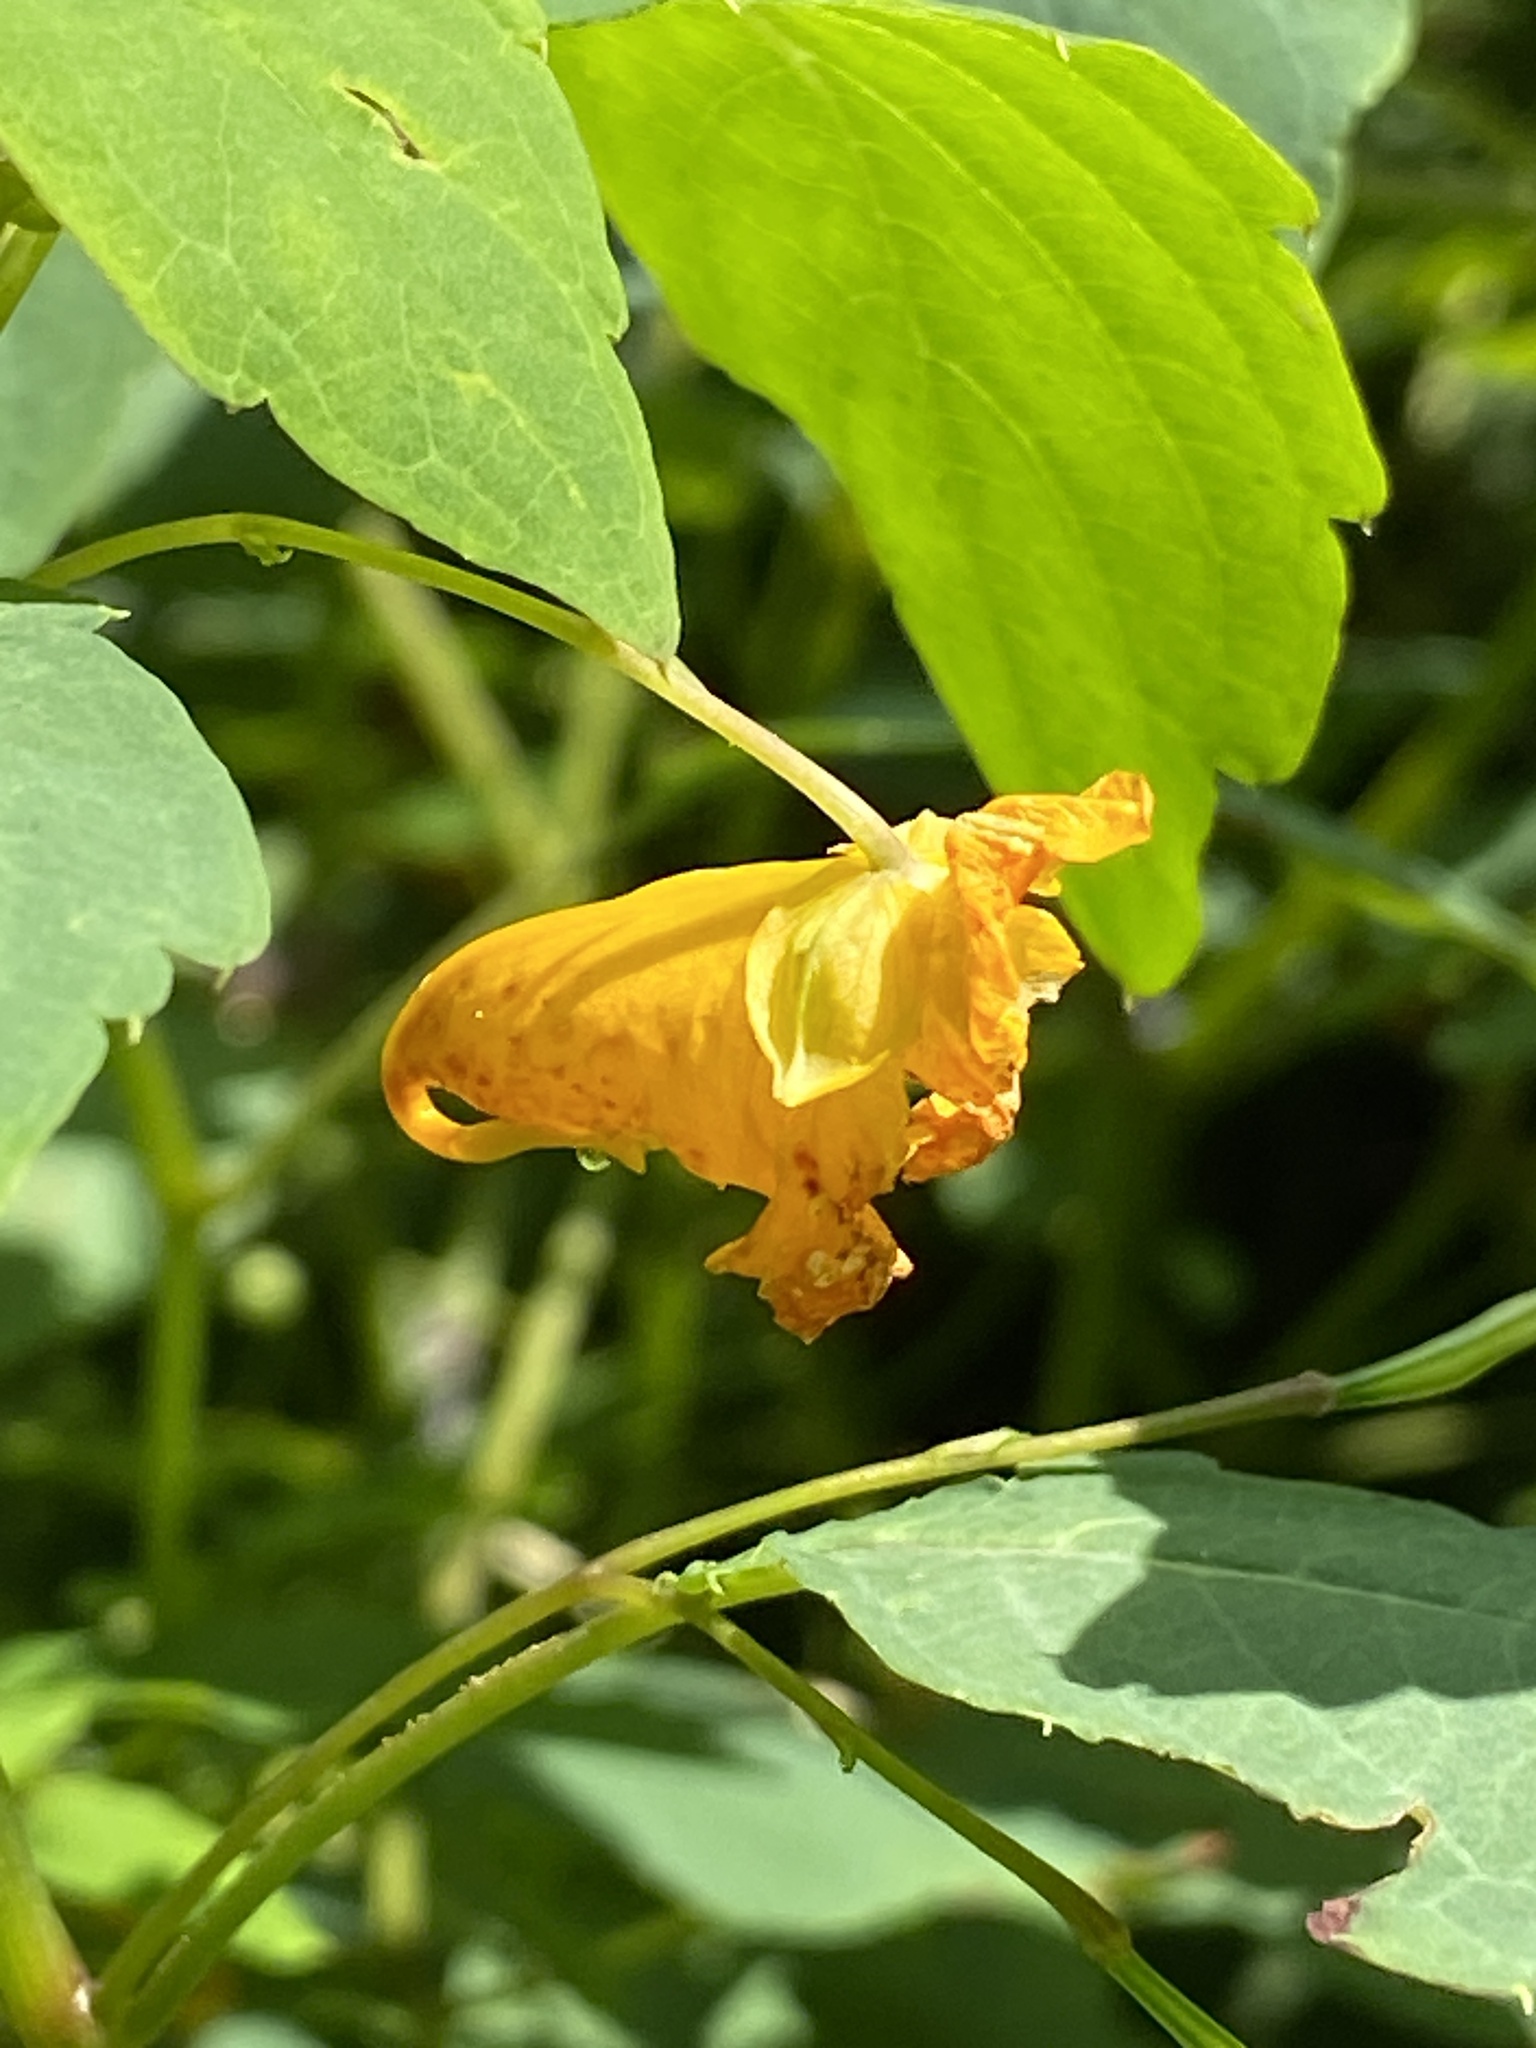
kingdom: Plantae
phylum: Tracheophyta
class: Magnoliopsida
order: Ericales
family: Balsaminaceae
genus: Impatiens
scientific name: Impatiens capensis
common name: Orange balsam
